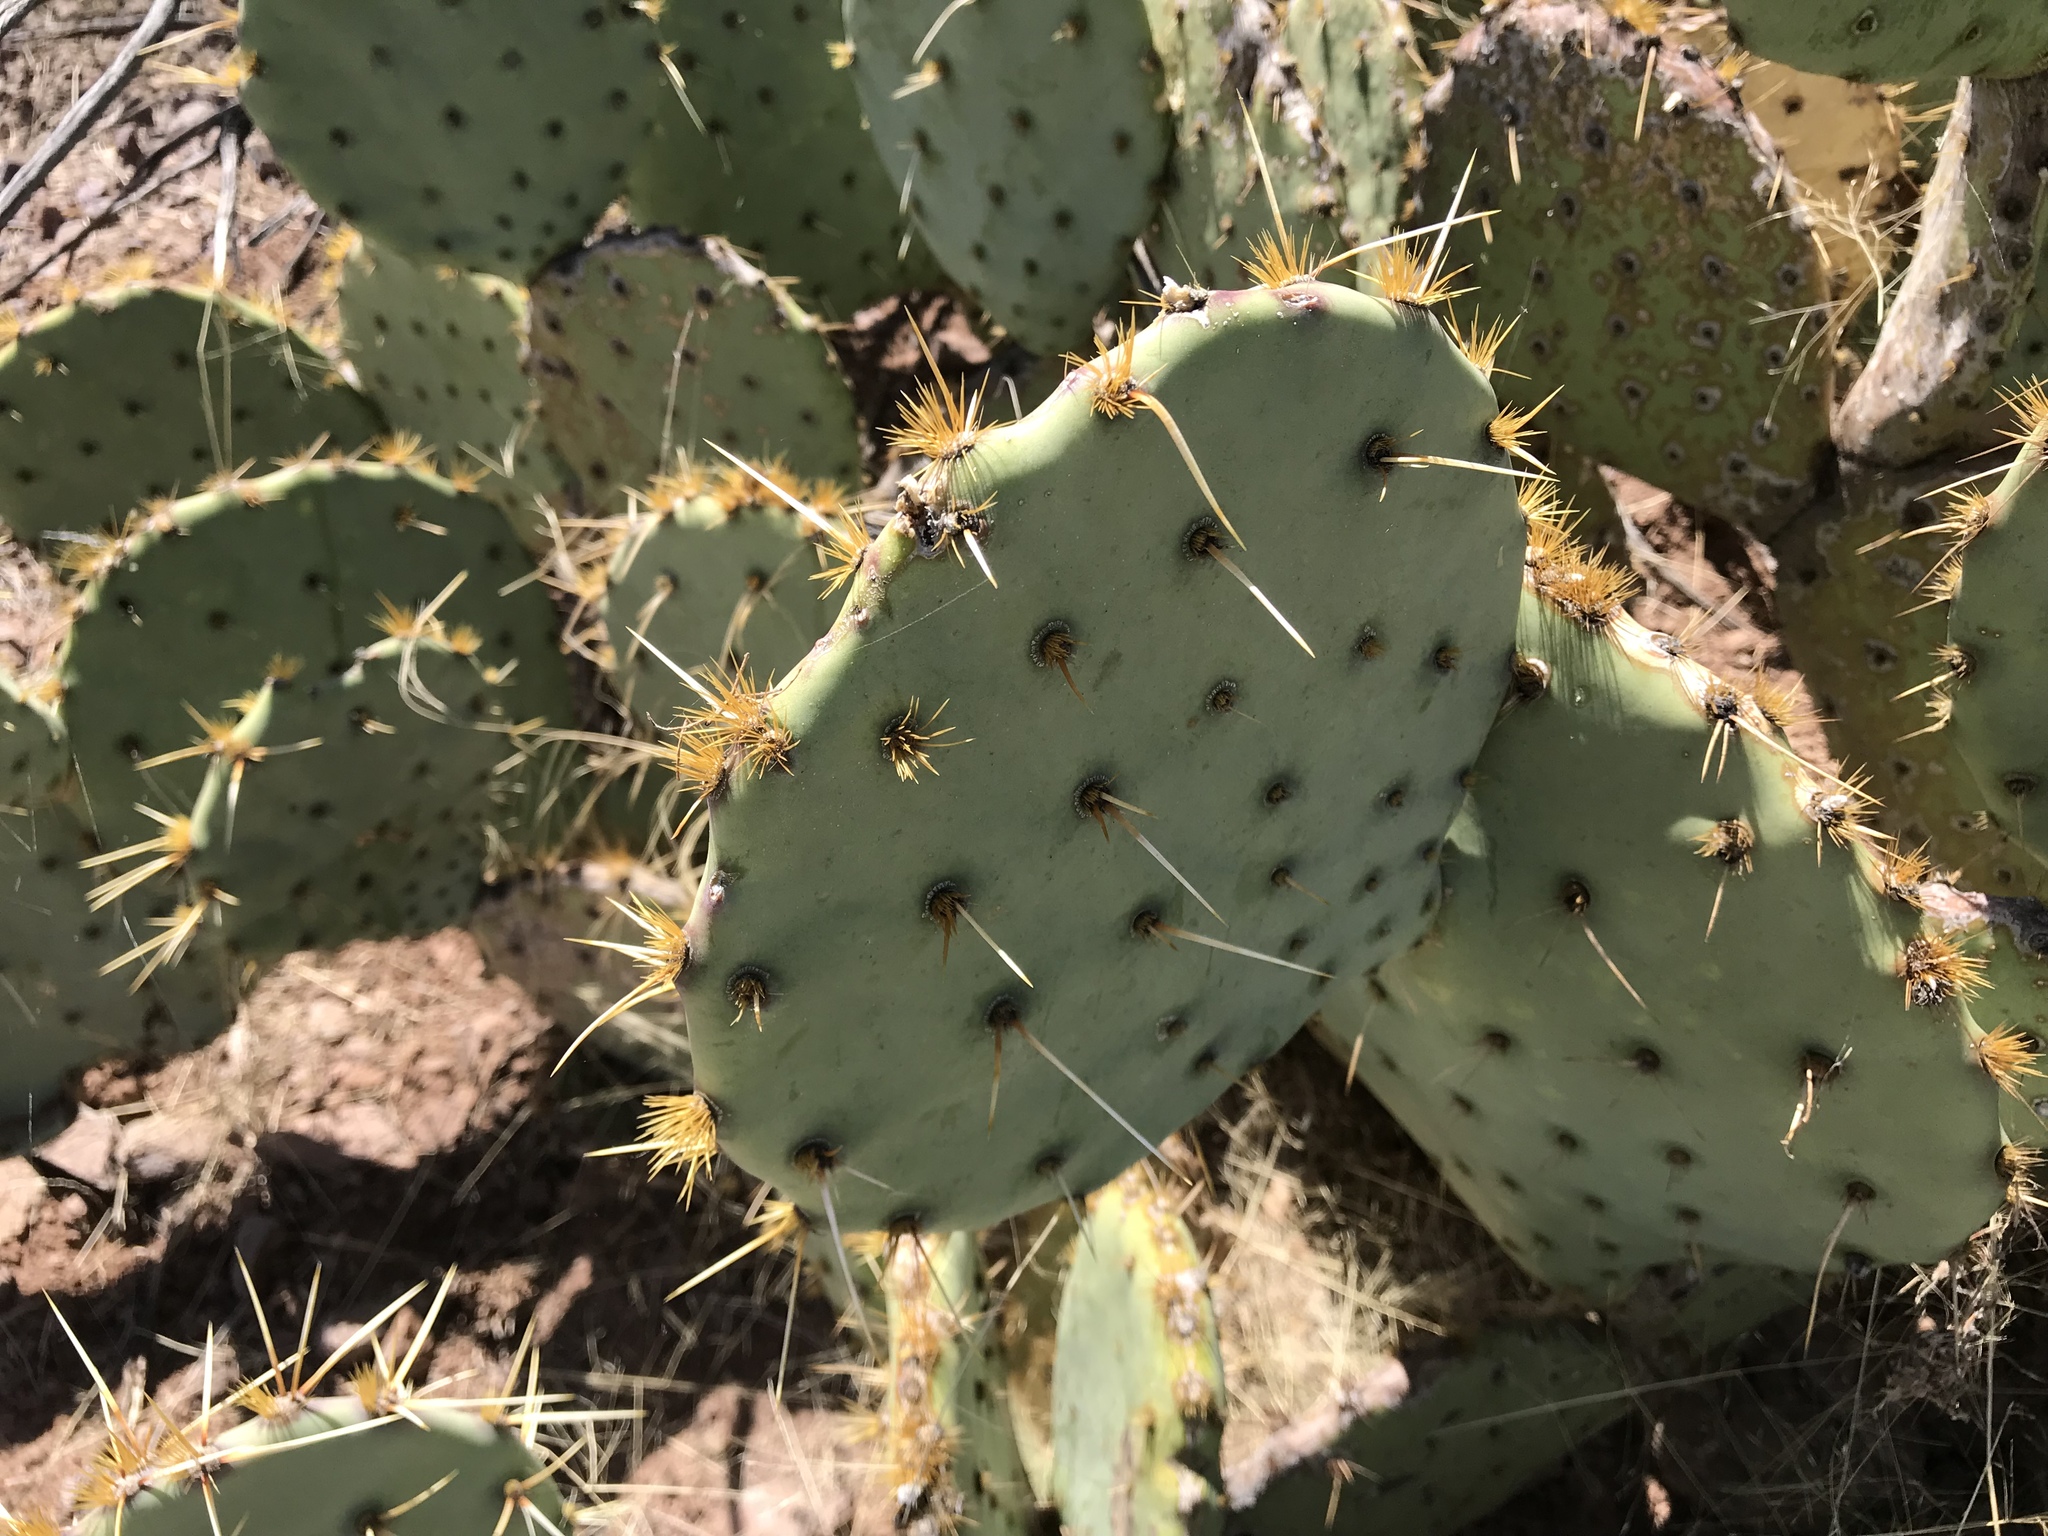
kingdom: Plantae
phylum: Tracheophyta
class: Magnoliopsida
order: Caryophyllales
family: Cactaceae
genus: Opuntia
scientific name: Opuntia engelmannii
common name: Cactus-apple
